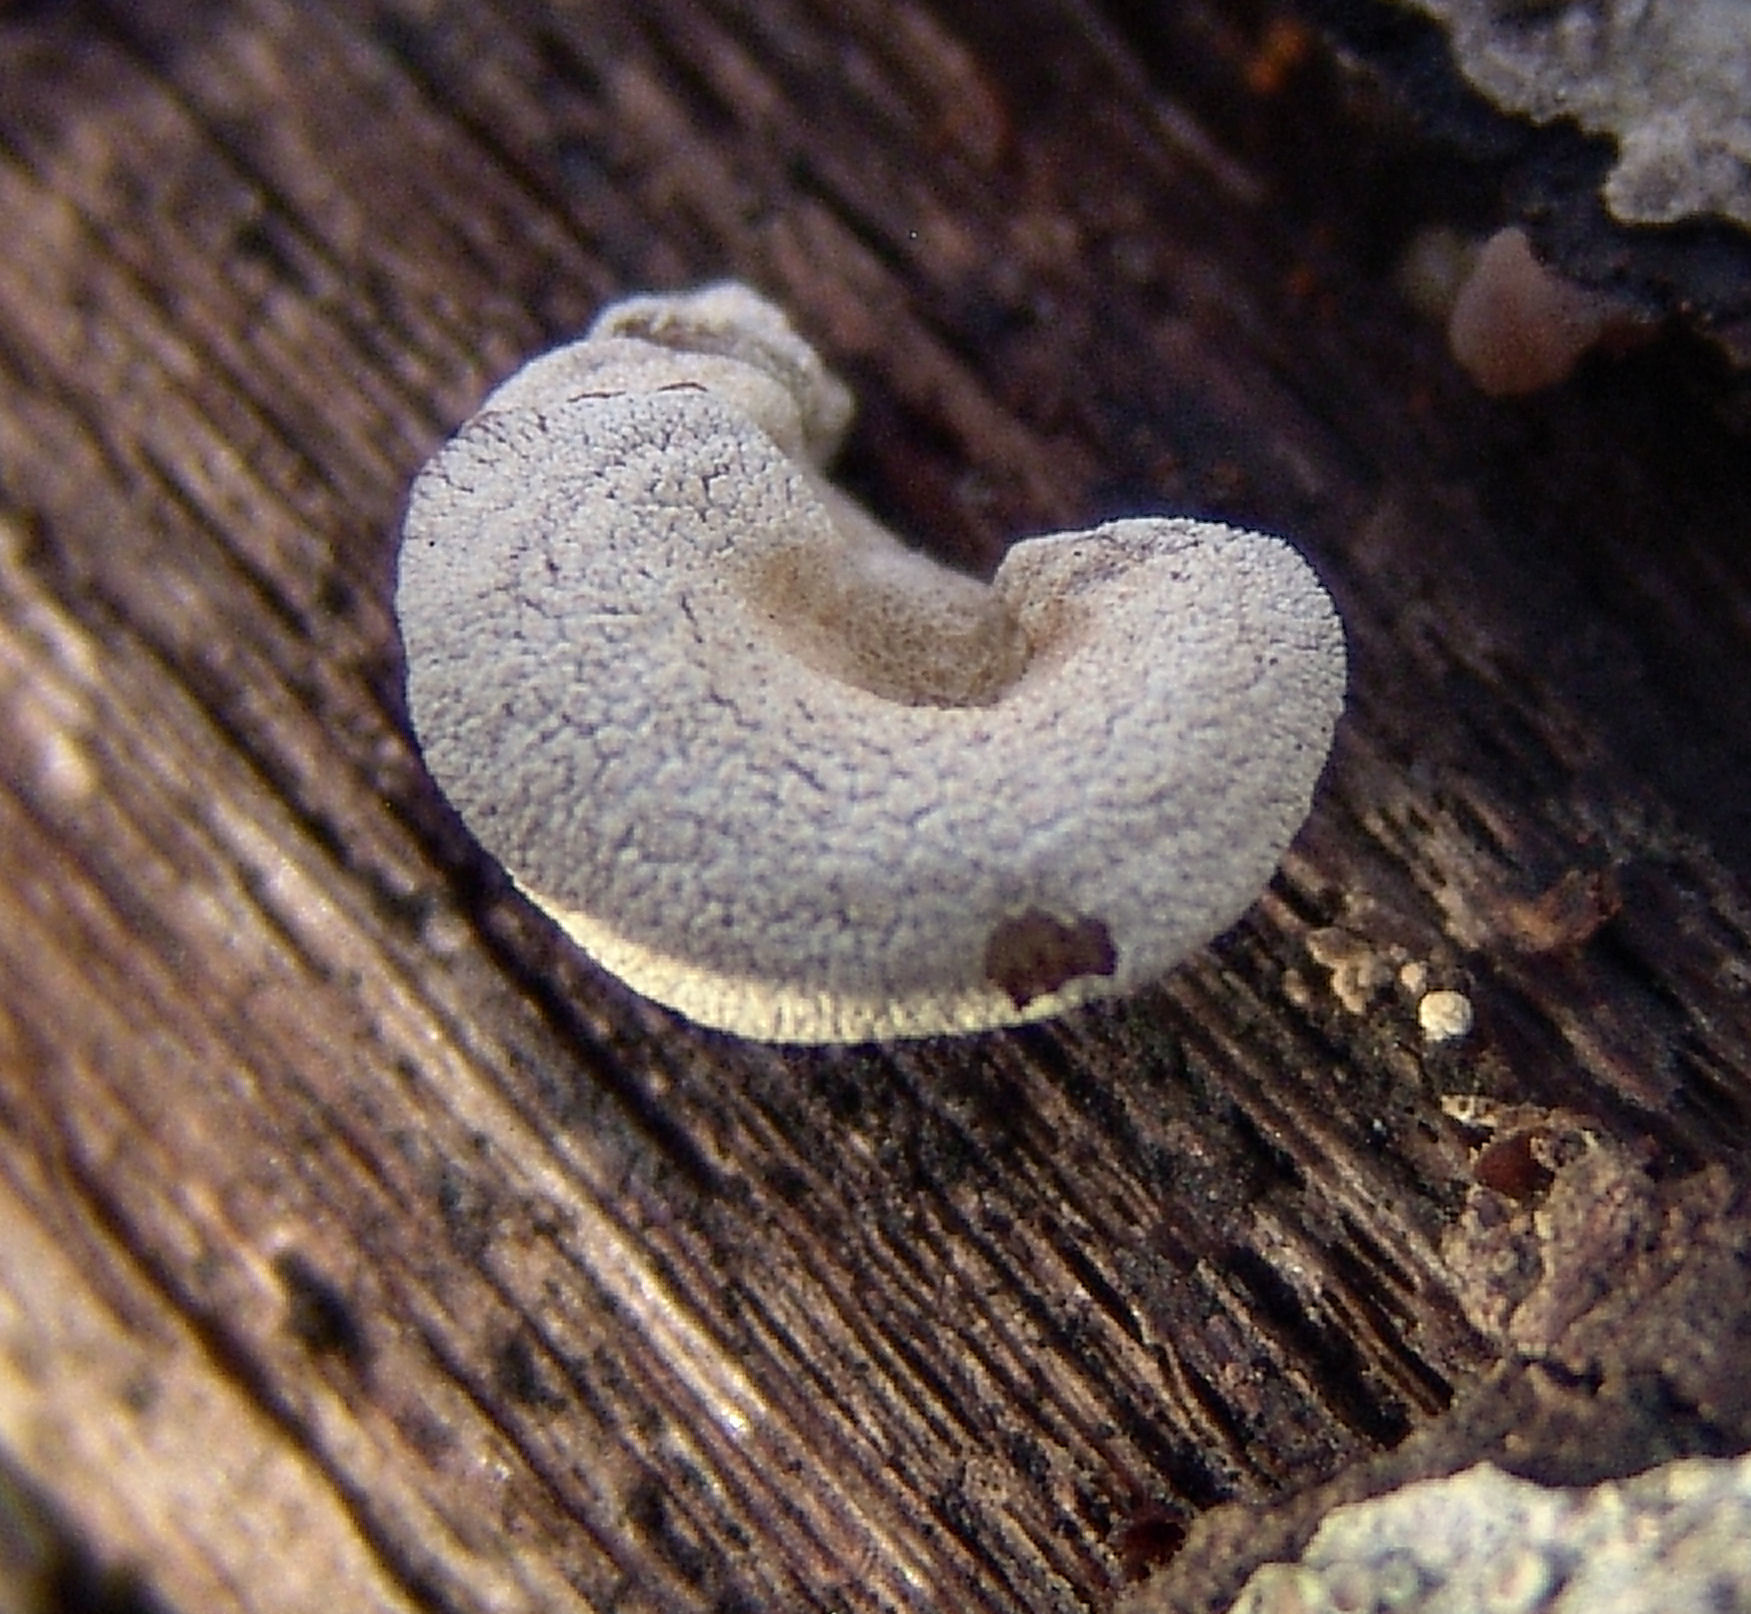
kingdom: Fungi
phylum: Basidiomycota
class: Agaricomycetes
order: Agaricales
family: Mycenaceae
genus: Panellus
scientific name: Panellus stipticus
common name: Bitter oysterling
